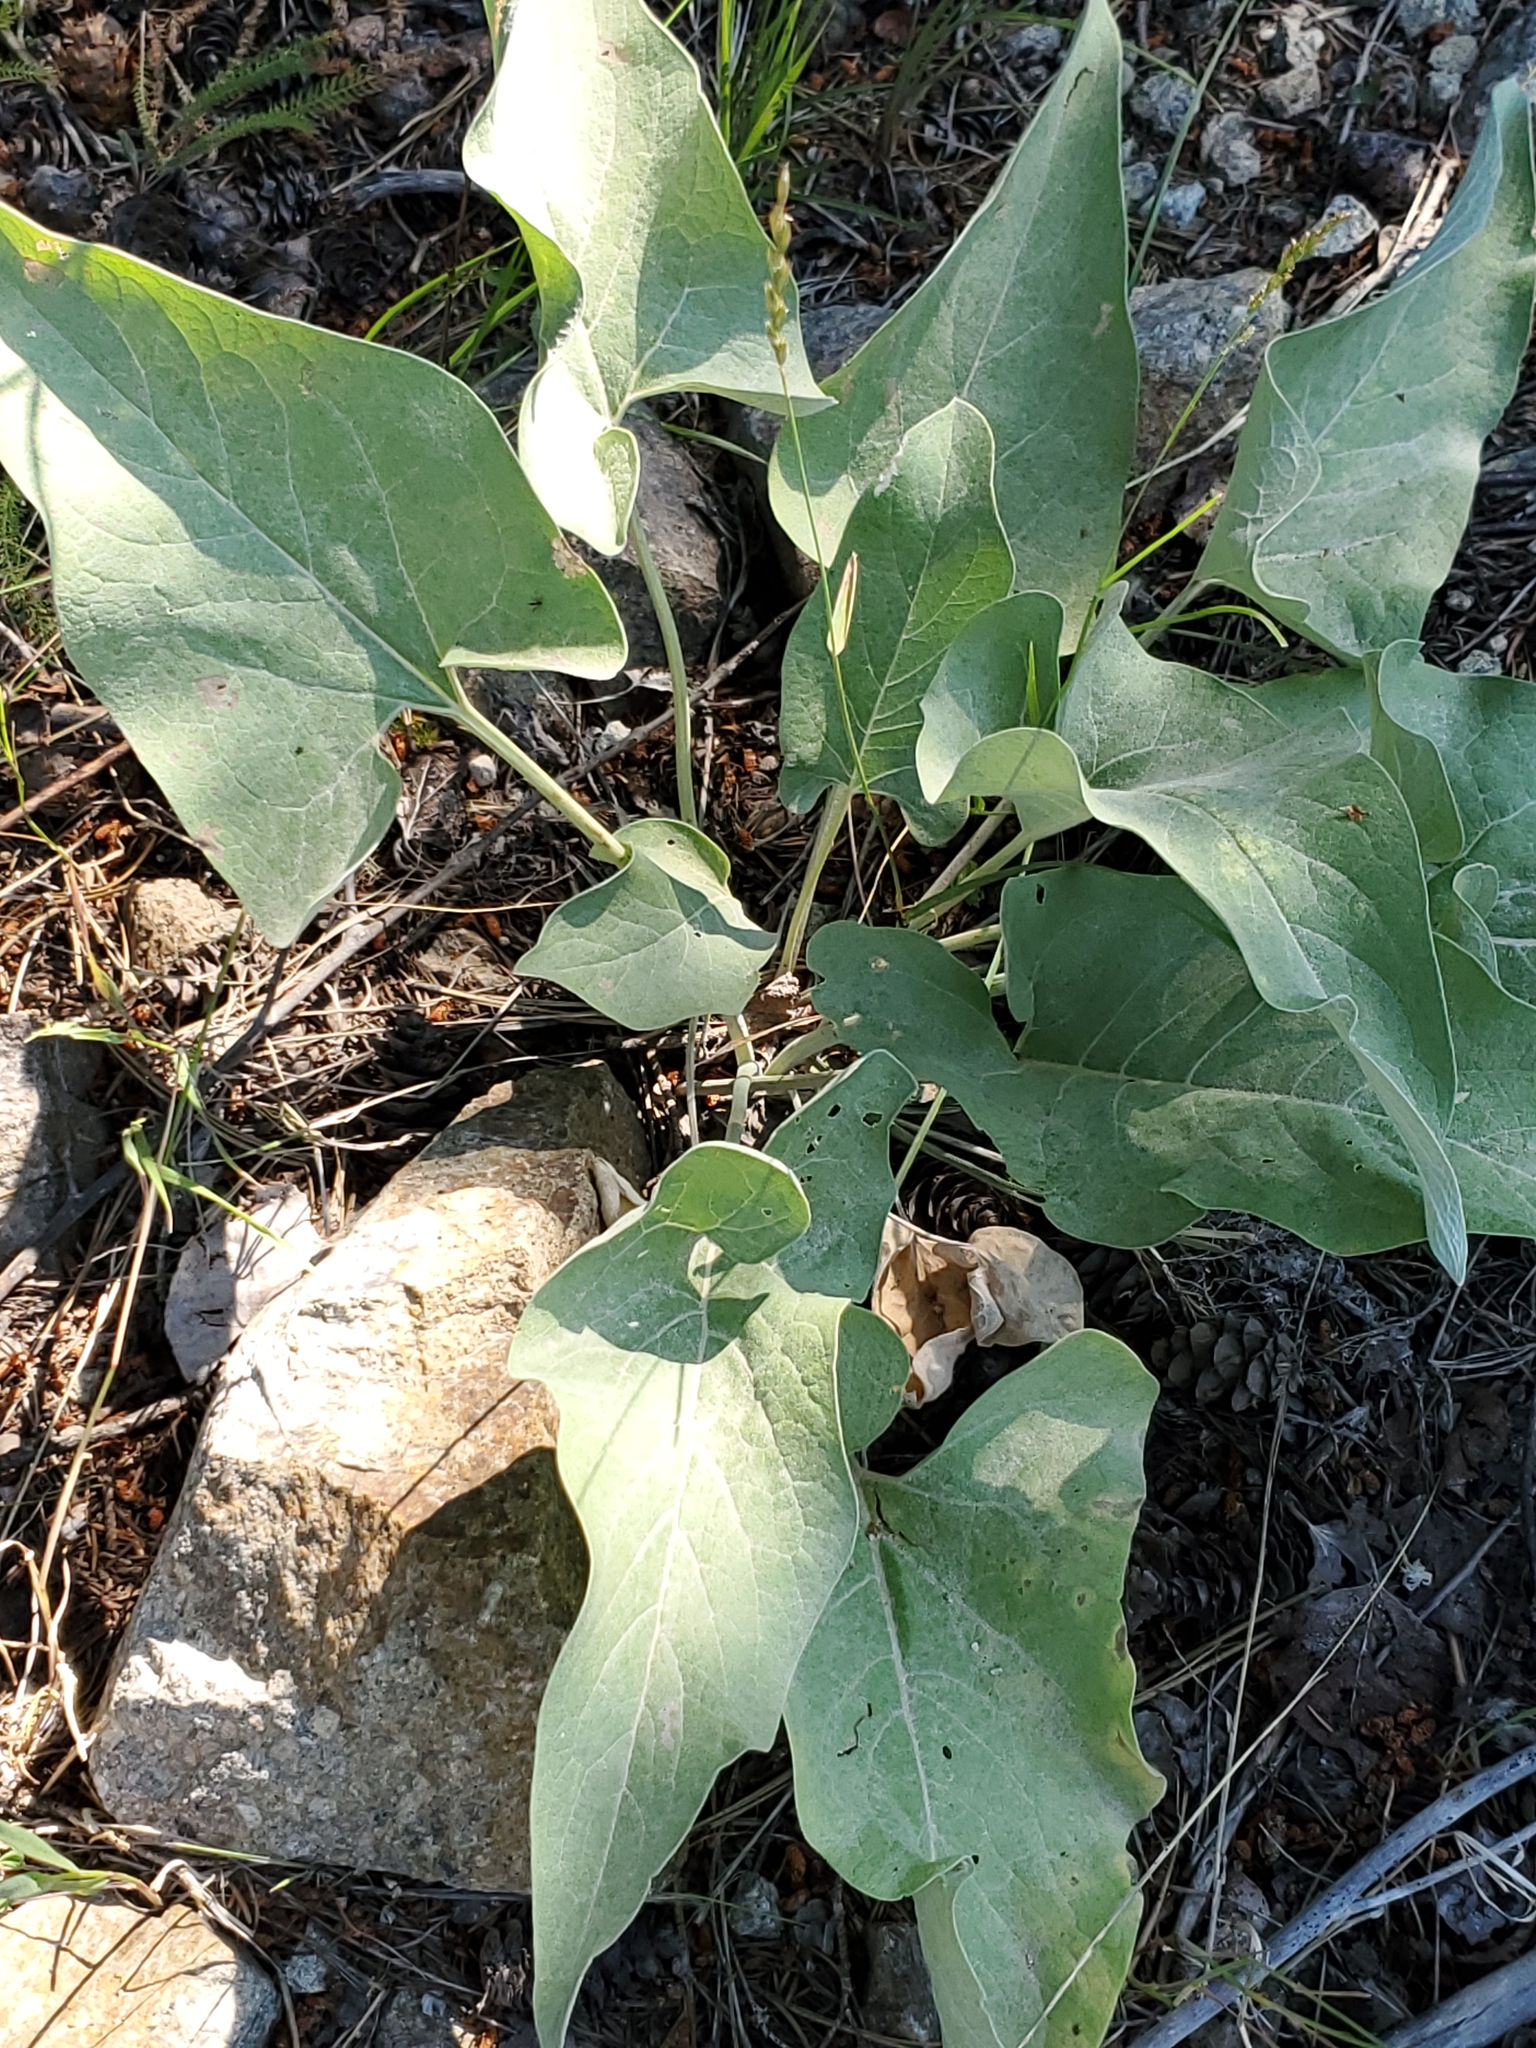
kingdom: Plantae
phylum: Tracheophyta
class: Magnoliopsida
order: Asterales
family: Asteraceae
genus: Wyethia
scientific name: Wyethia sagittata
